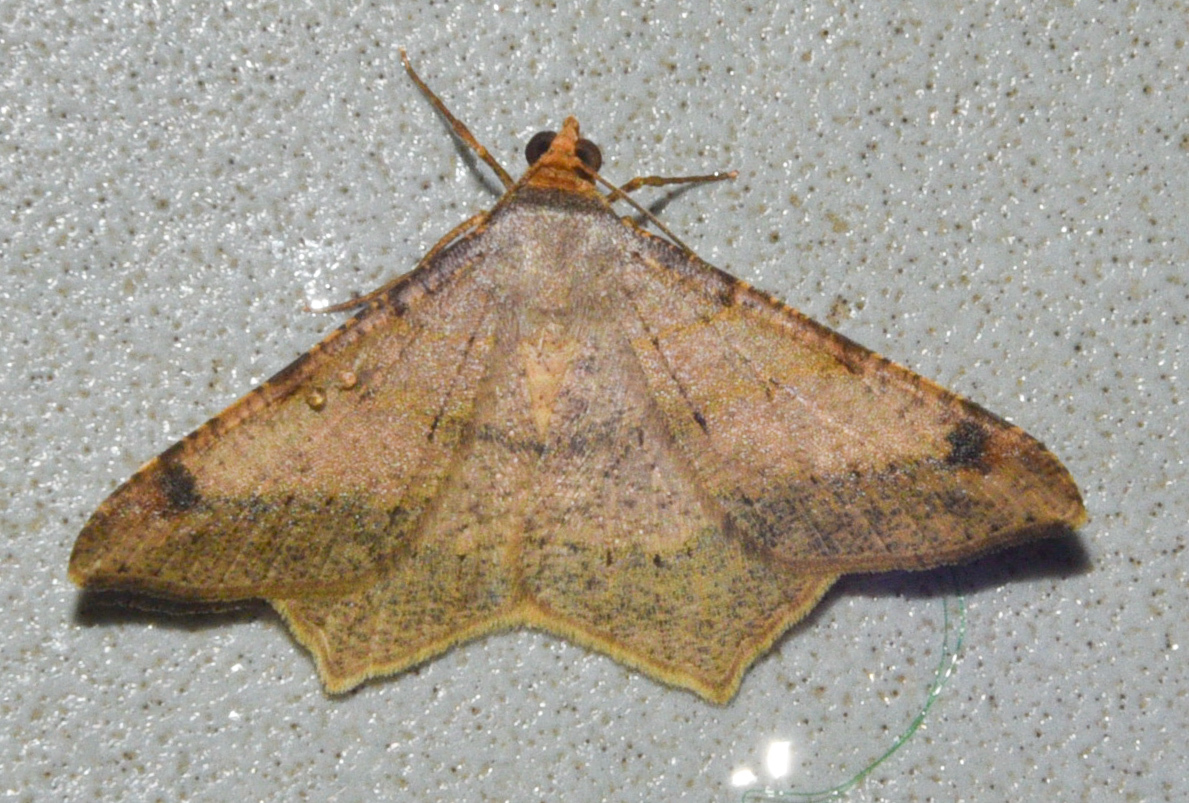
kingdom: Animalia
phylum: Arthropoda
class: Insecta
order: Lepidoptera
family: Geometridae
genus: Macaria
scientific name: Macaria abydata
